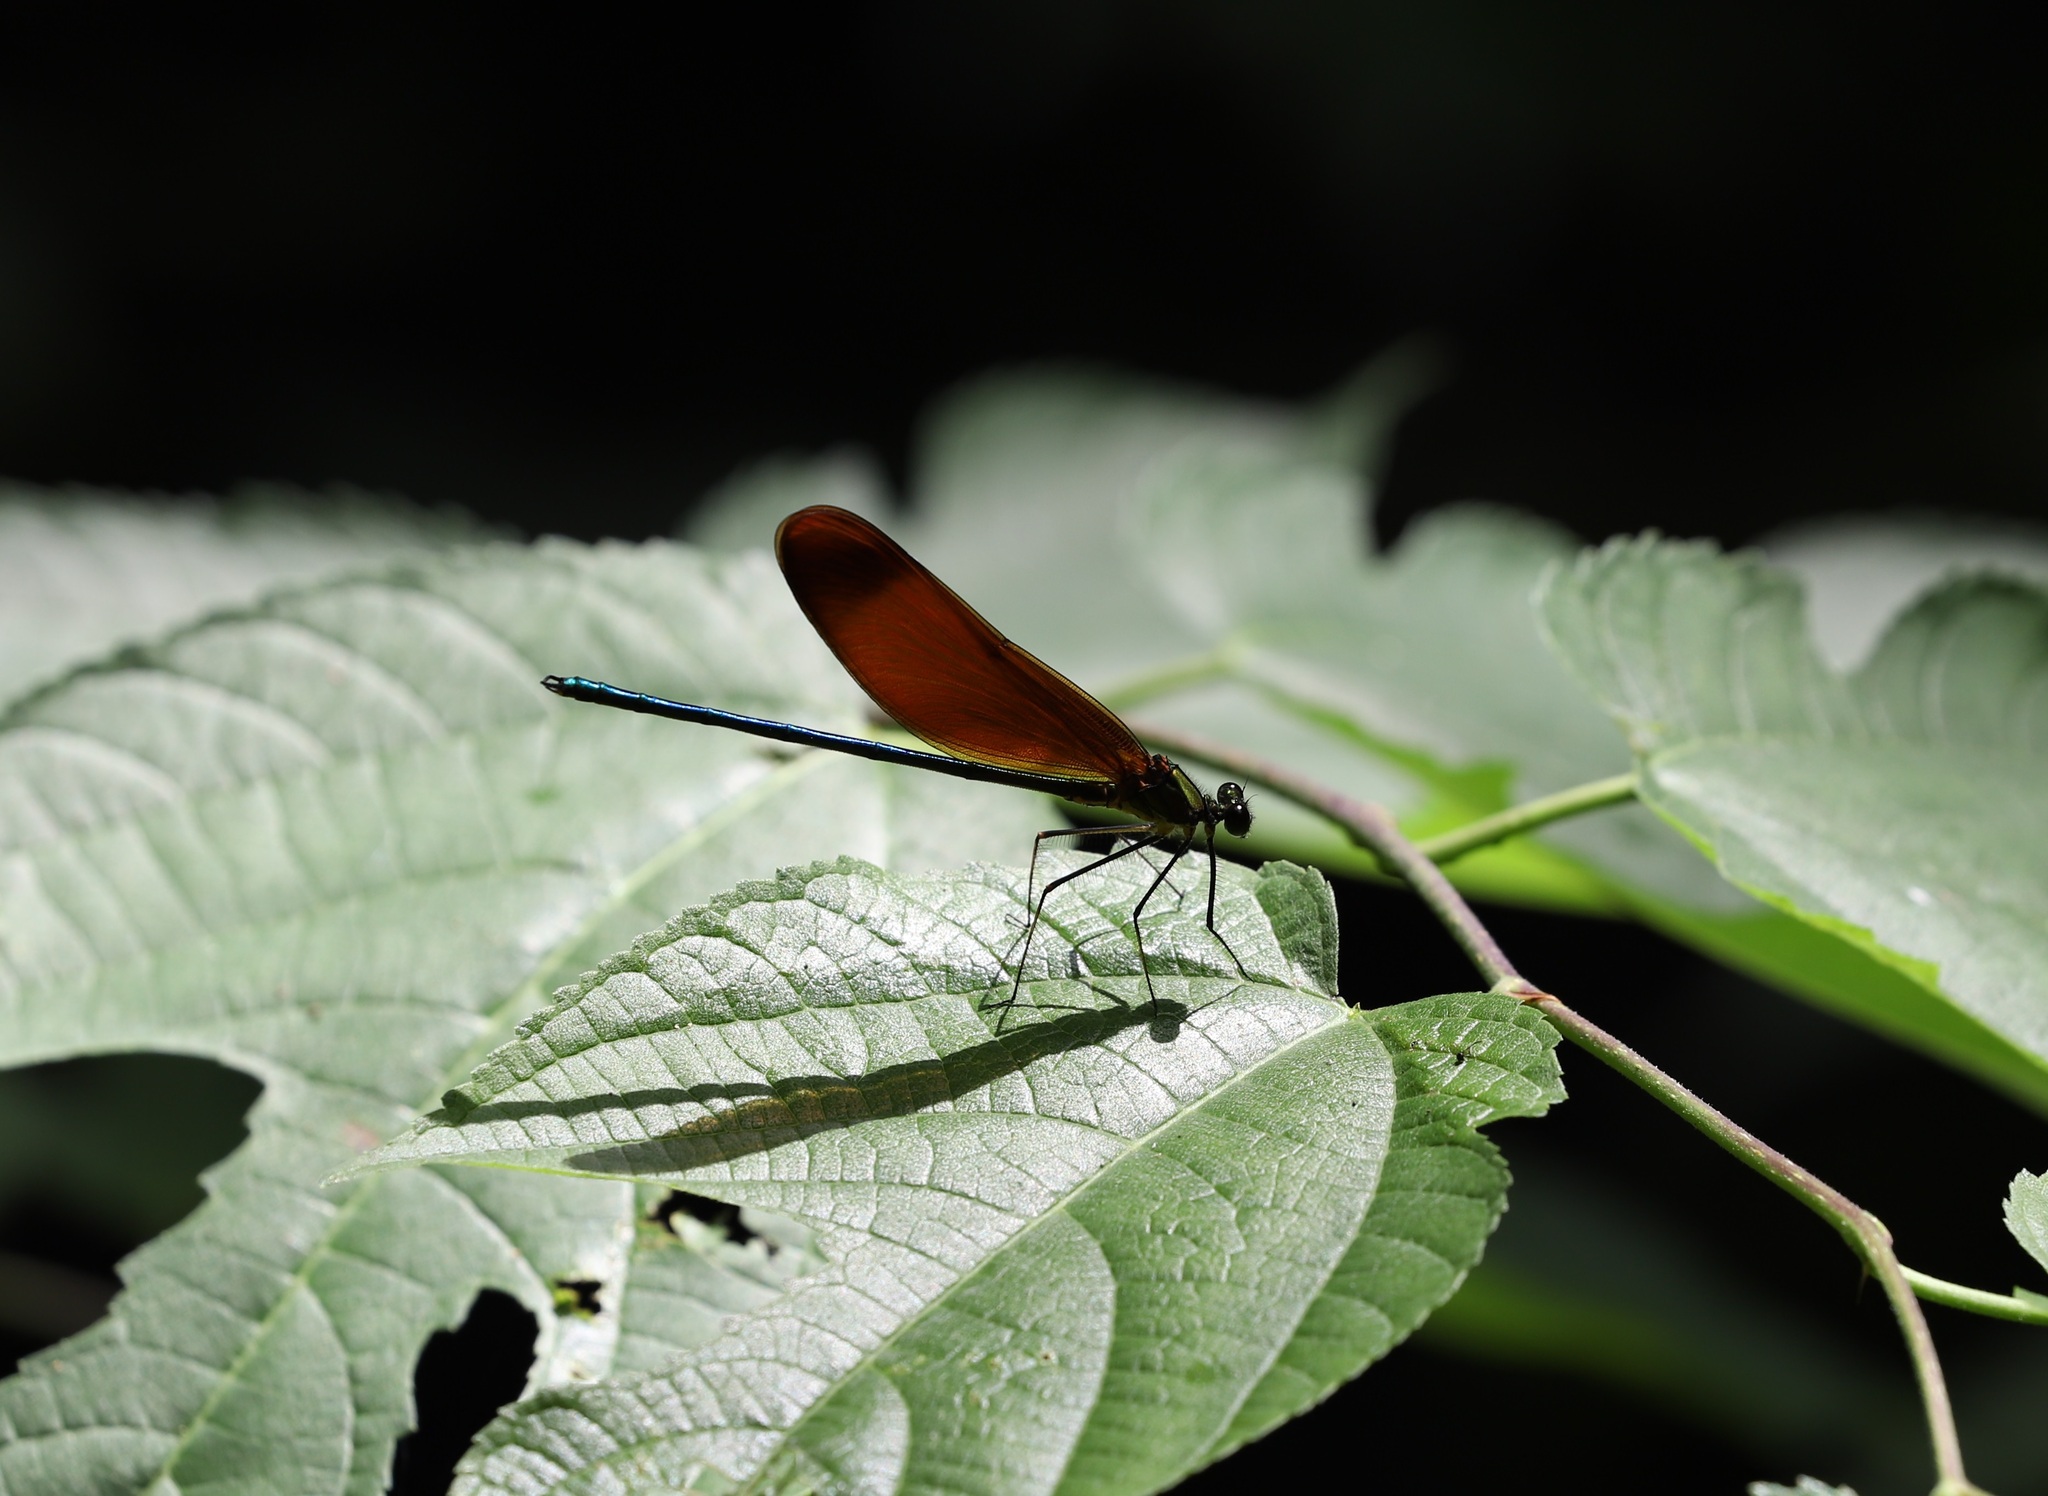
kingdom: Animalia
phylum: Arthropoda
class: Insecta
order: Odonata
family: Calopterygidae
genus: Calopteryx
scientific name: Calopteryx cornelia
